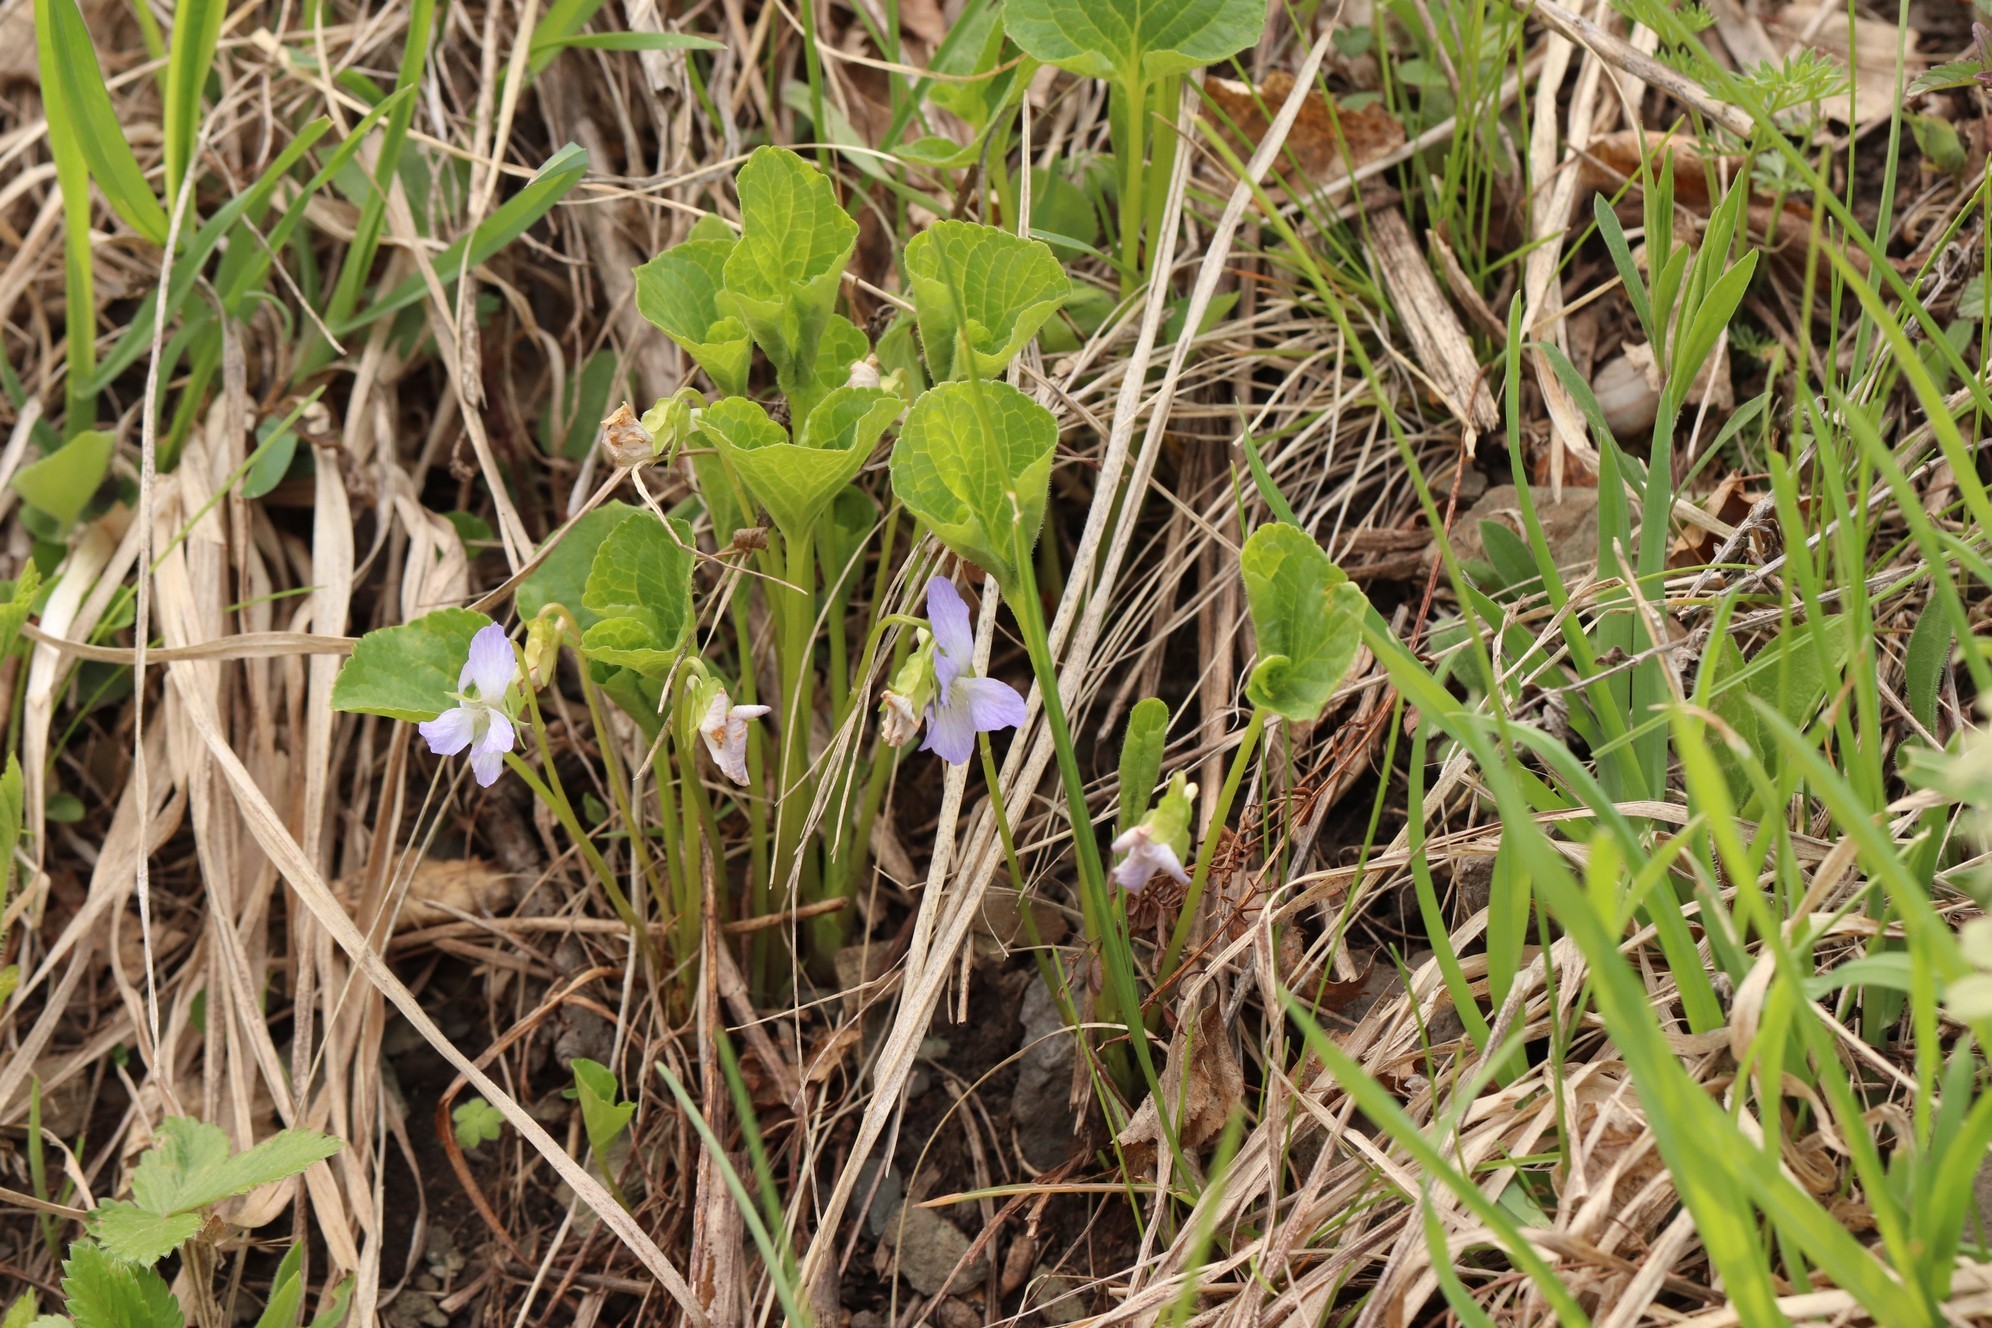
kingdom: Plantae
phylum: Tracheophyta
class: Magnoliopsida
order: Malpighiales
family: Violaceae
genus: Viola
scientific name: Viola mirabilis
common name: Wonder violet
